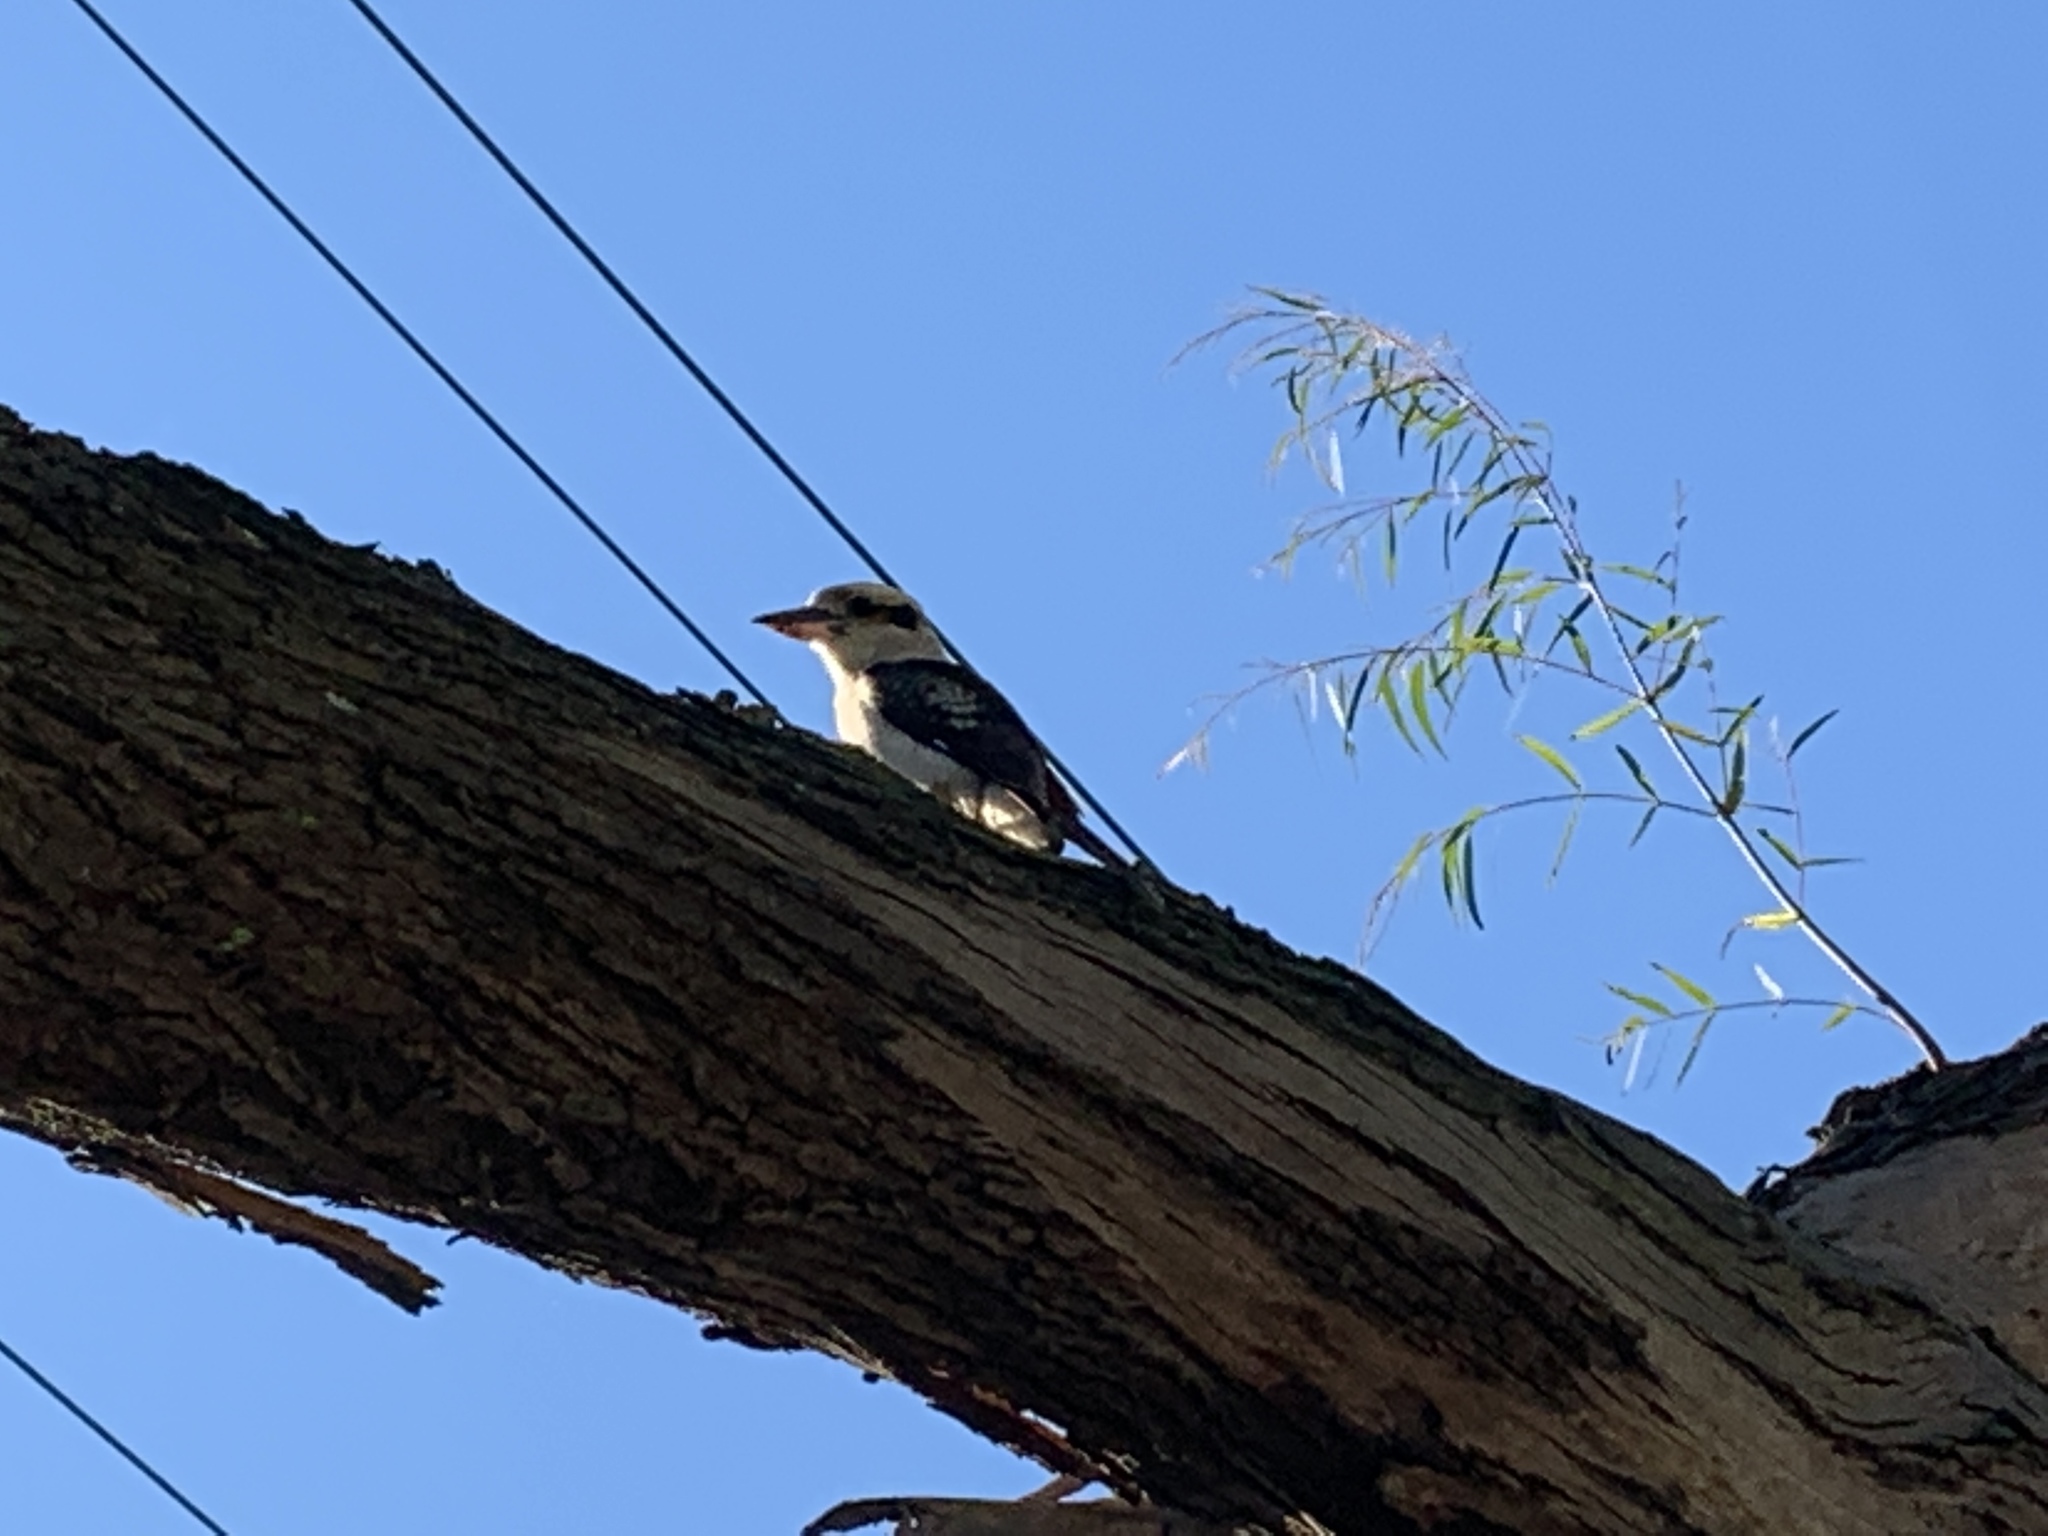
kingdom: Animalia
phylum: Chordata
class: Aves
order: Coraciiformes
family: Alcedinidae
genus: Dacelo
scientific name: Dacelo novaeguineae
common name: Laughing kookaburra
